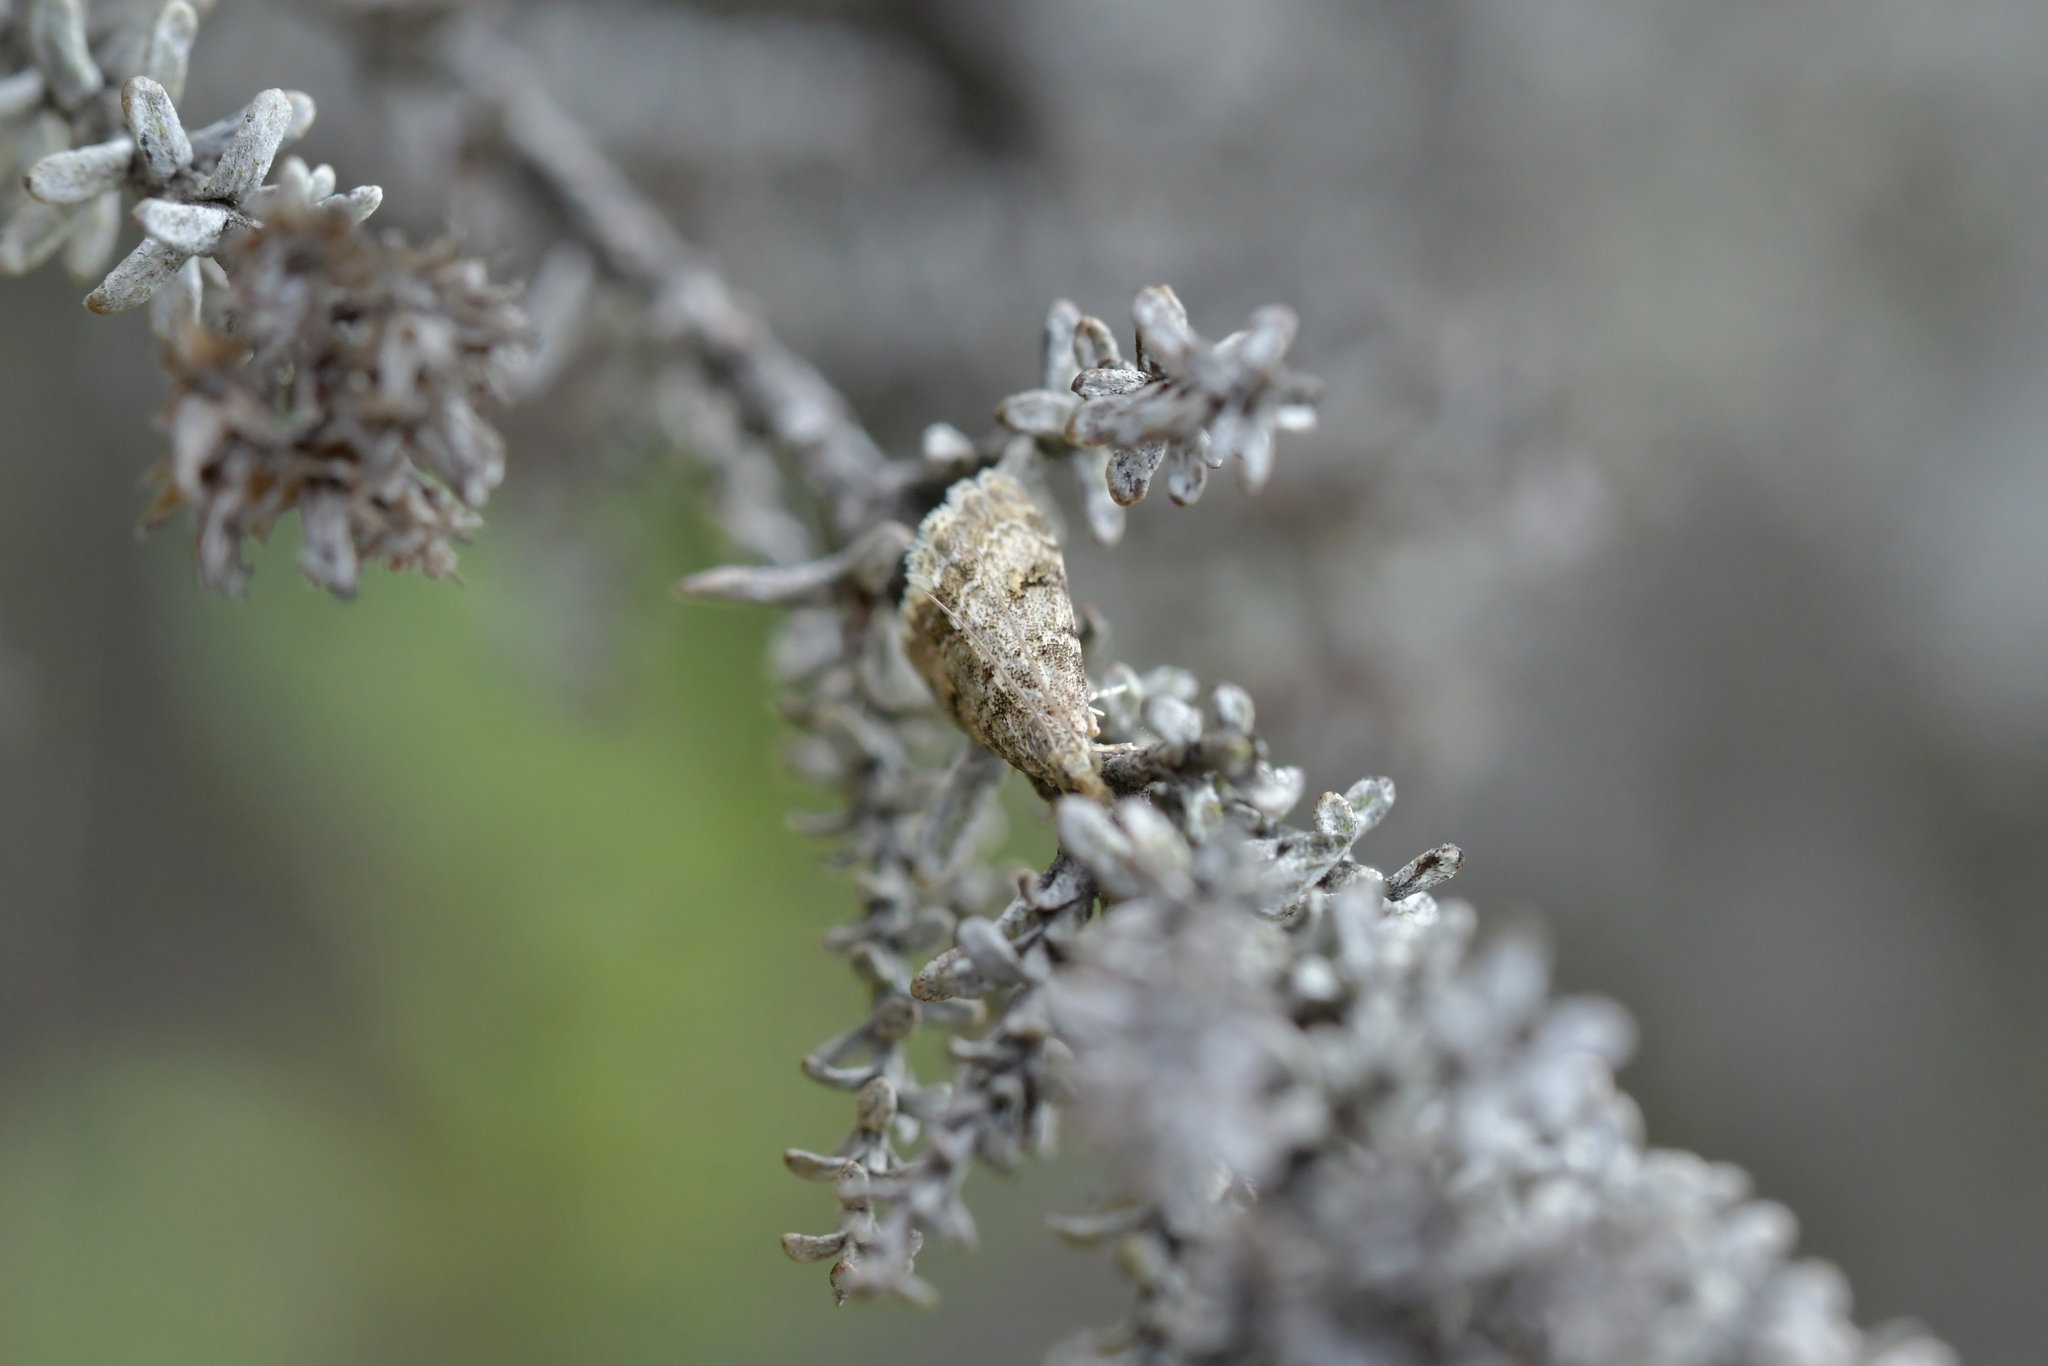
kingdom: Animalia
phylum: Arthropoda
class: Insecta
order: Lepidoptera
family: Crambidae
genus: Glaucocharis
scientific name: Glaucocharis elaina
